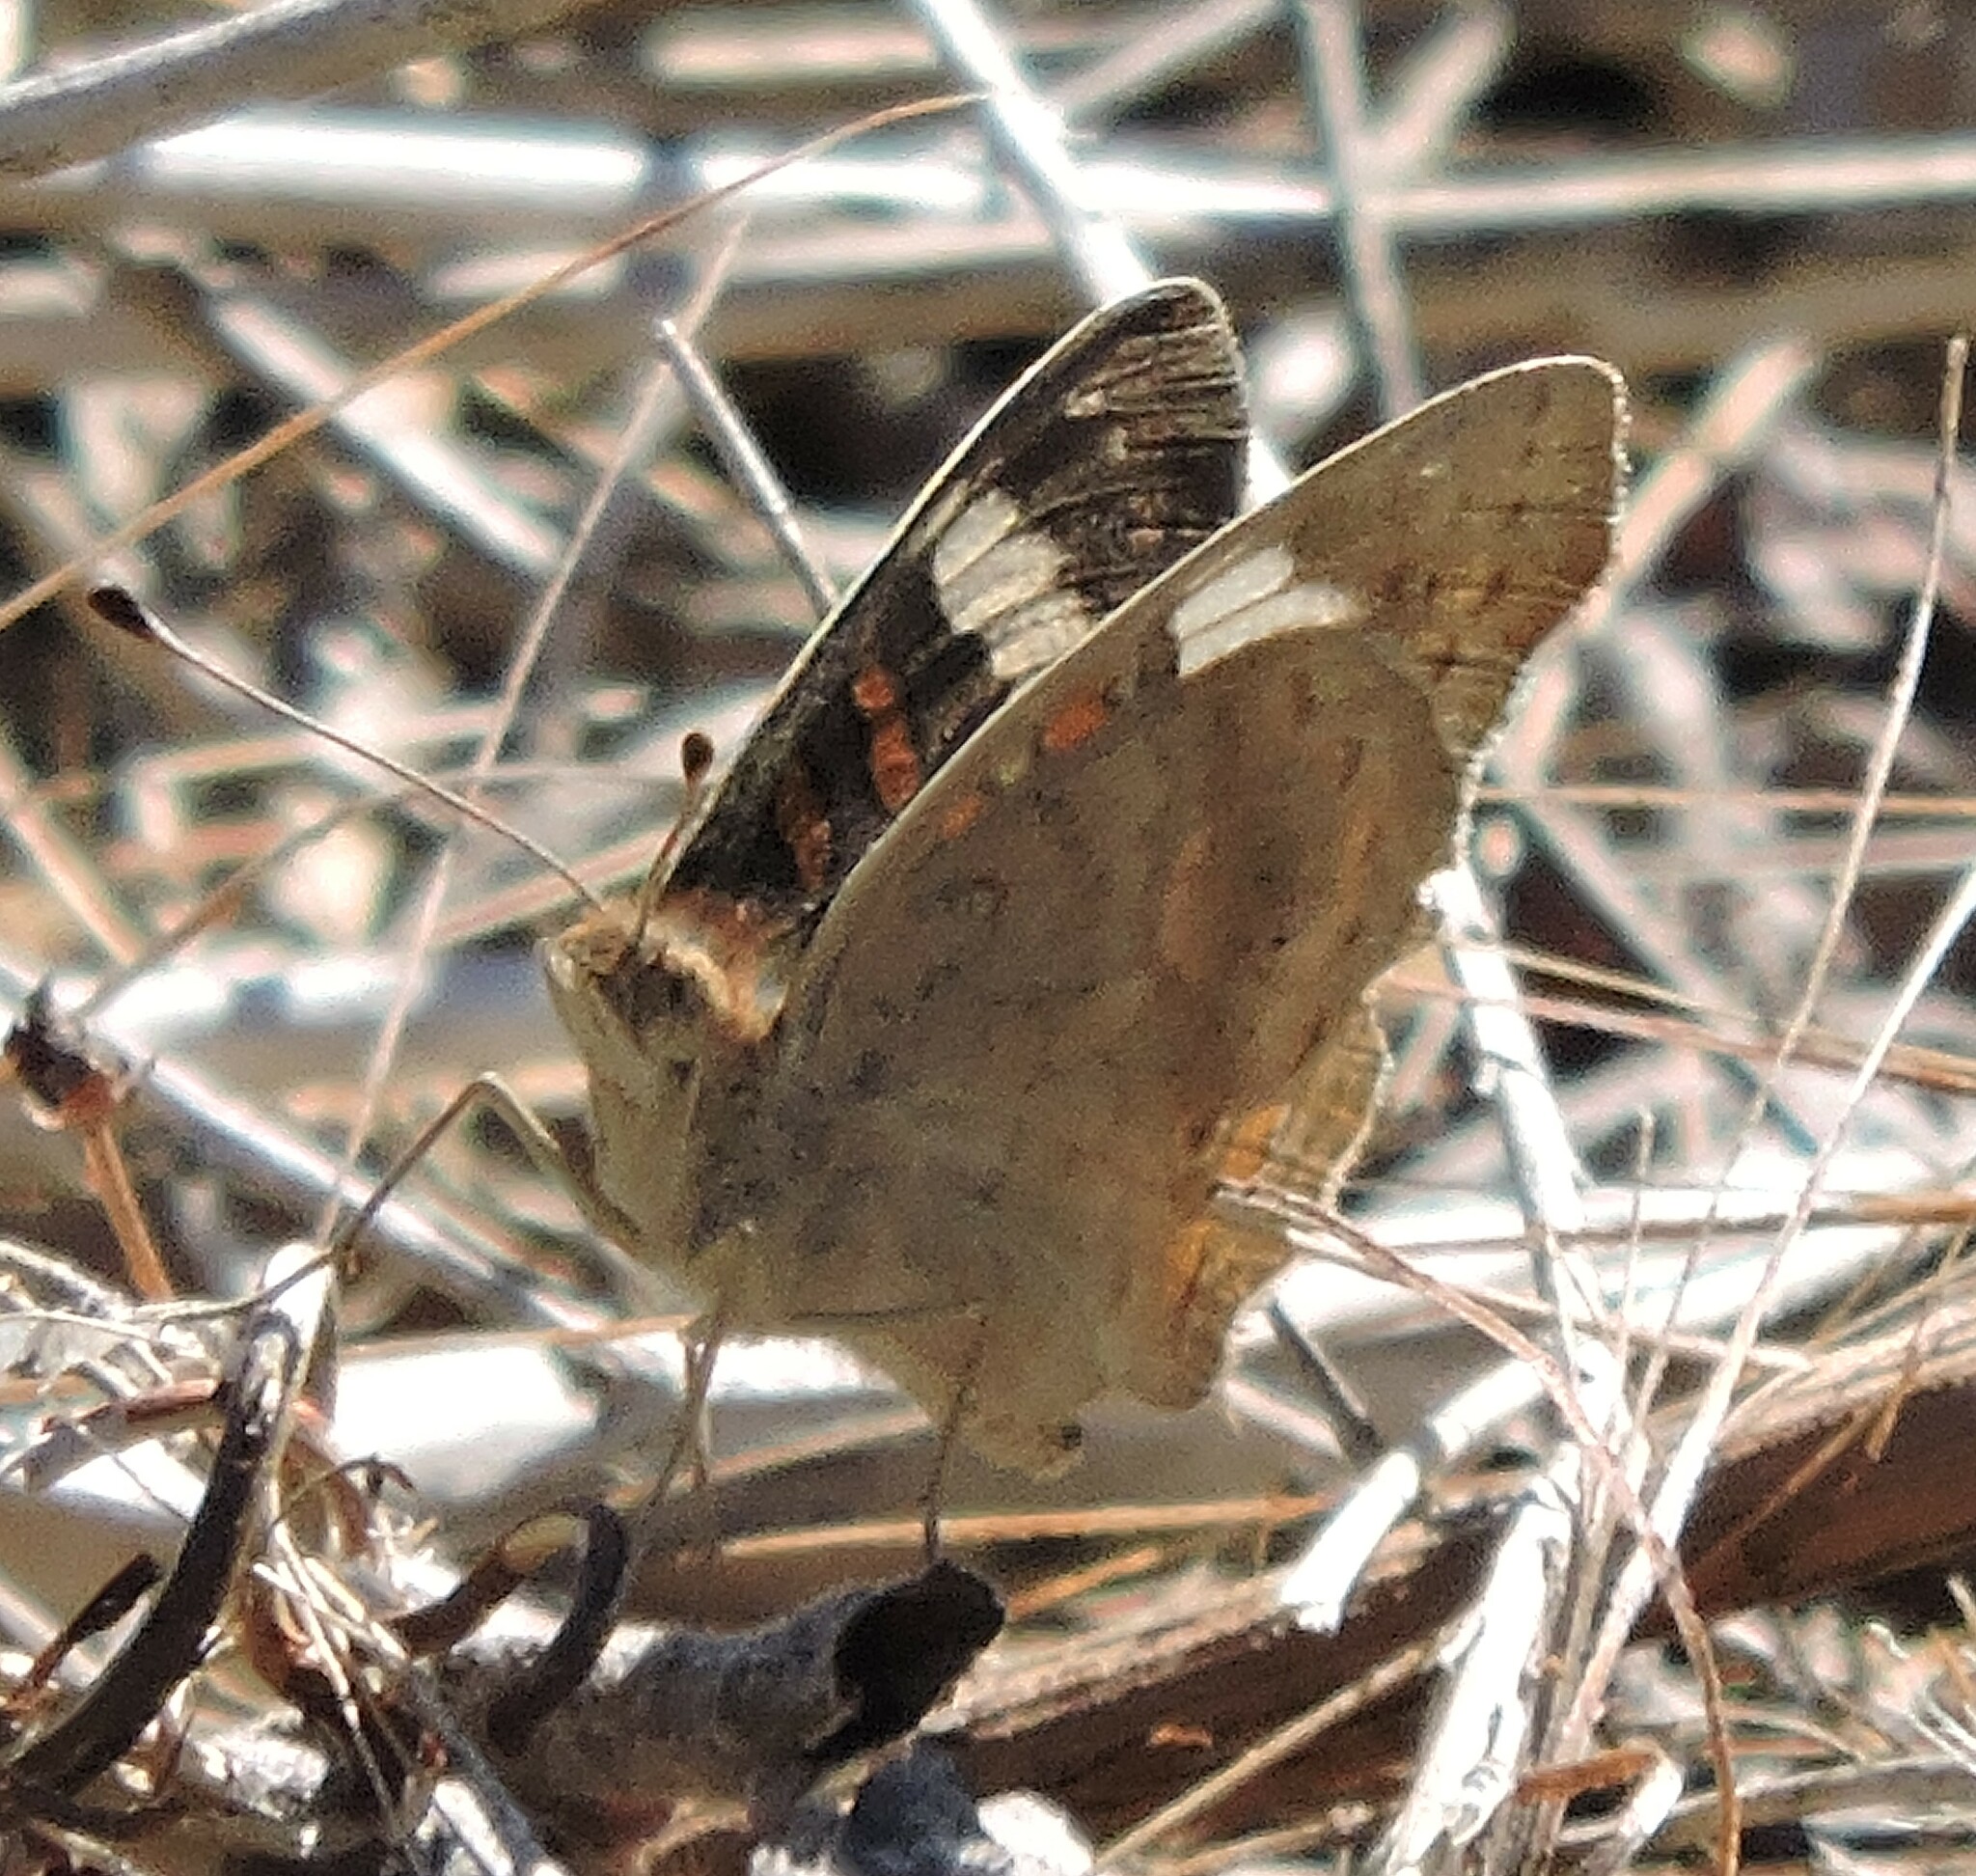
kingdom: Animalia
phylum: Arthropoda
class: Insecta
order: Lepidoptera
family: Nymphalidae
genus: Junonia
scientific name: Junonia grisea
